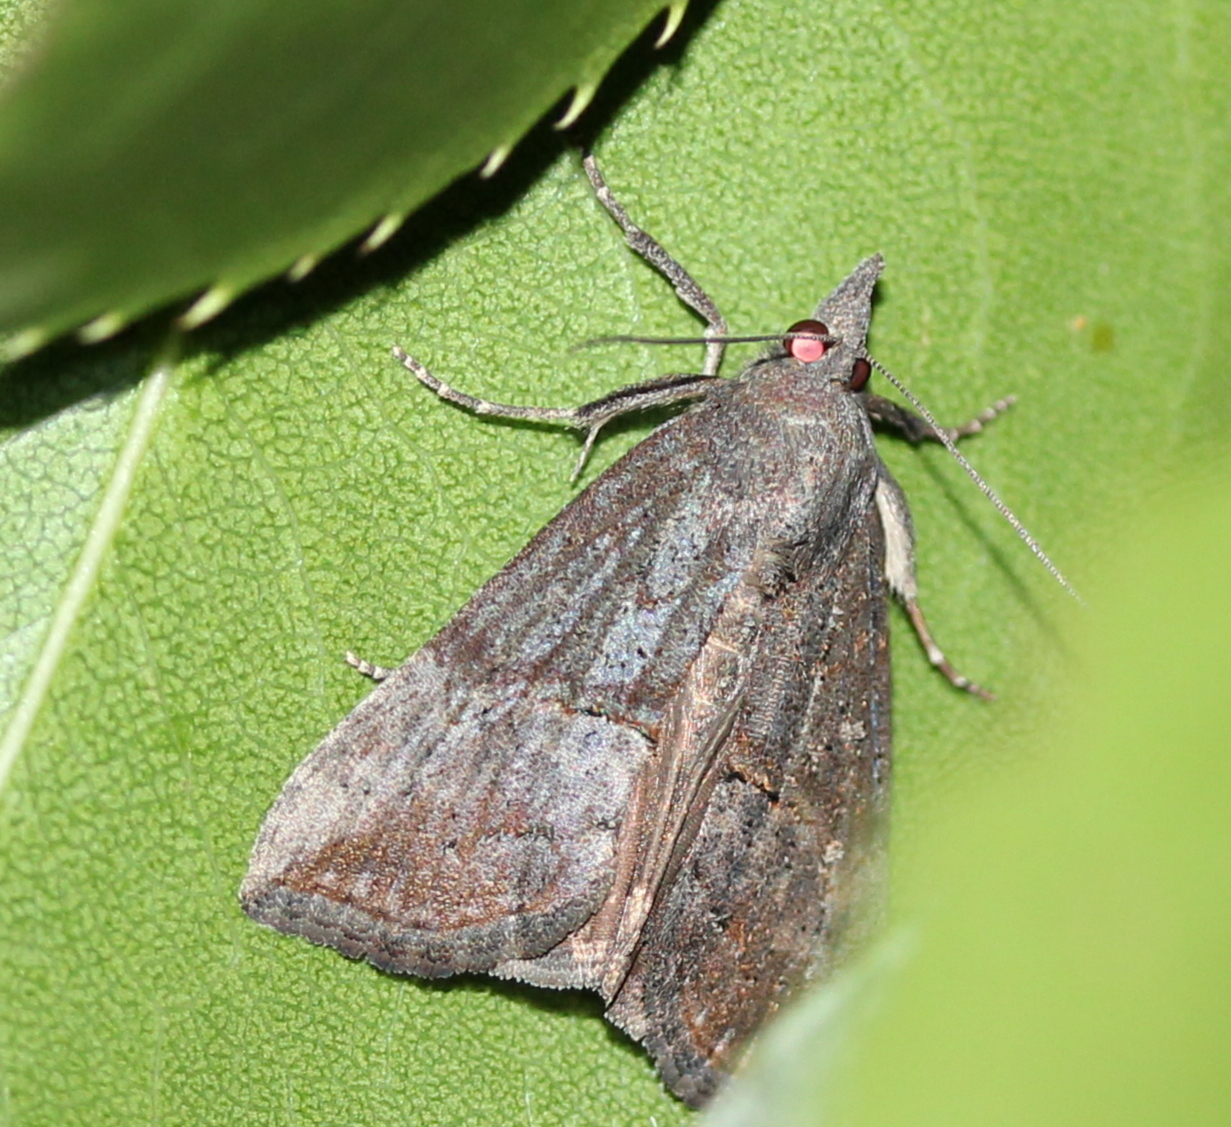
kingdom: Animalia
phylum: Arthropoda
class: Insecta
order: Lepidoptera
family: Erebidae
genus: Hypena
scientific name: Hypena scabra
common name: Green cloverworm
